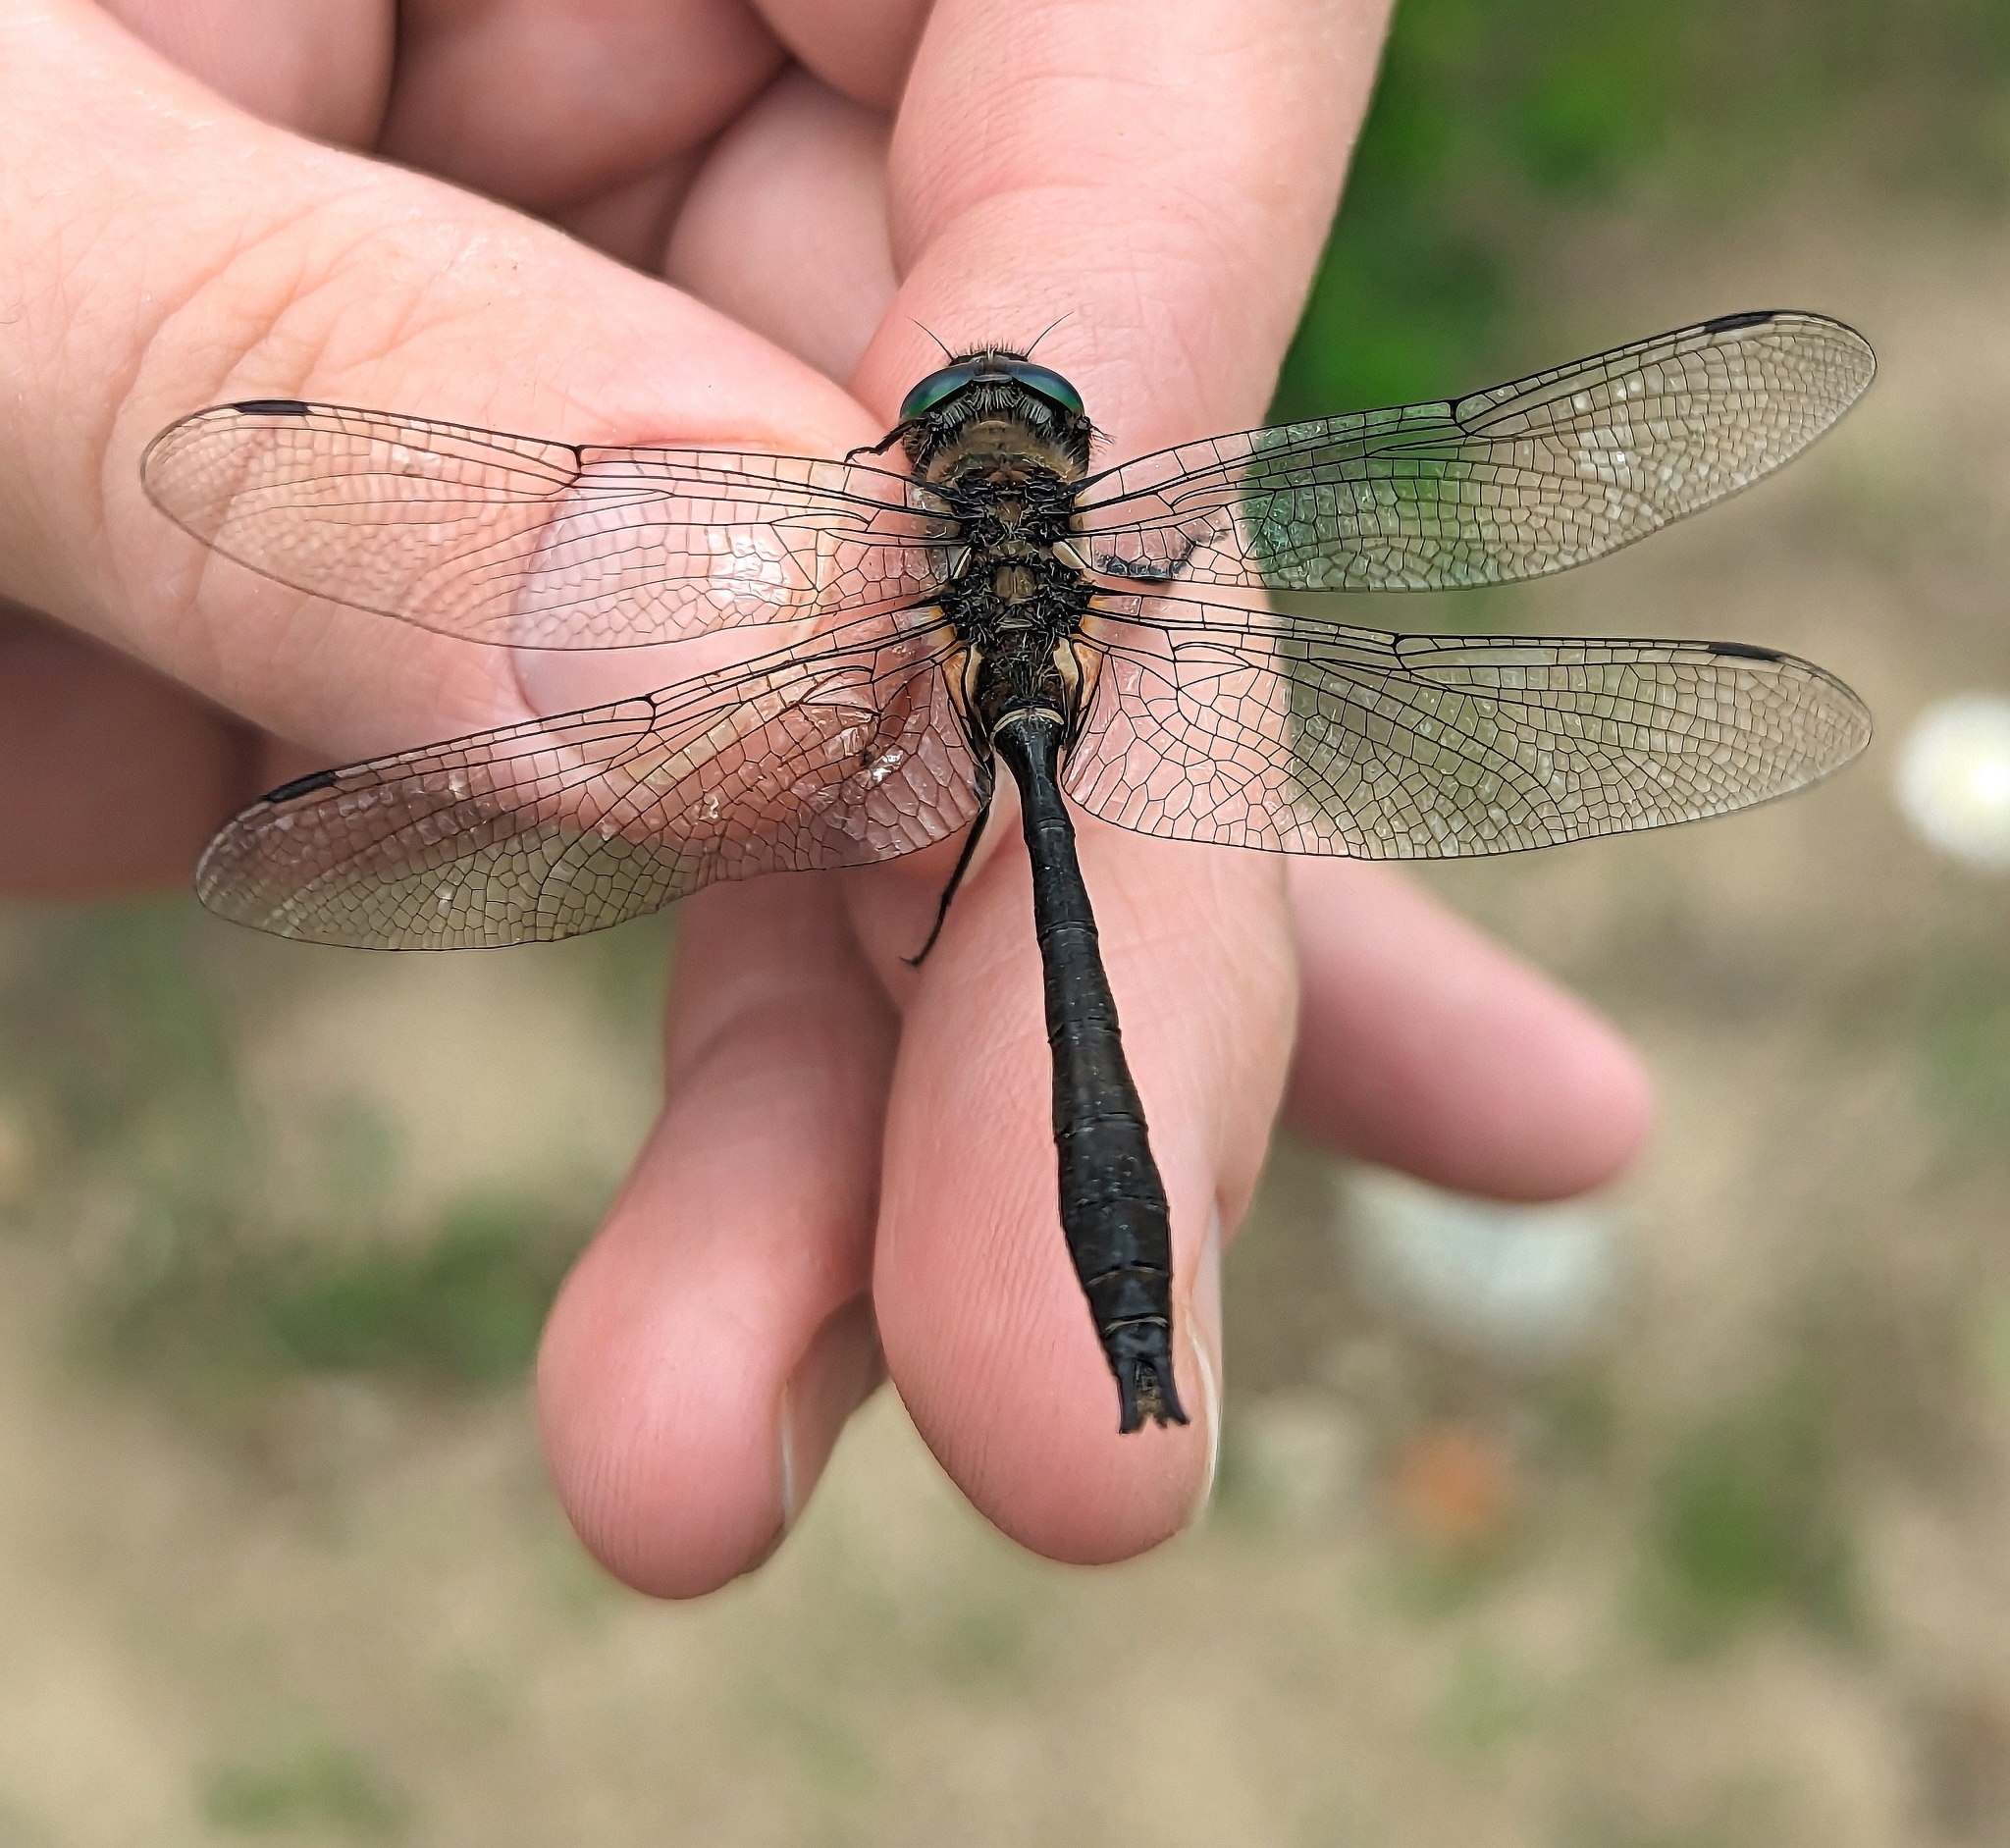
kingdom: Animalia
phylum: Arthropoda
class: Insecta
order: Odonata
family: Corduliidae
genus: Cordulia
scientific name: Cordulia shurtleffii
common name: American emerald
